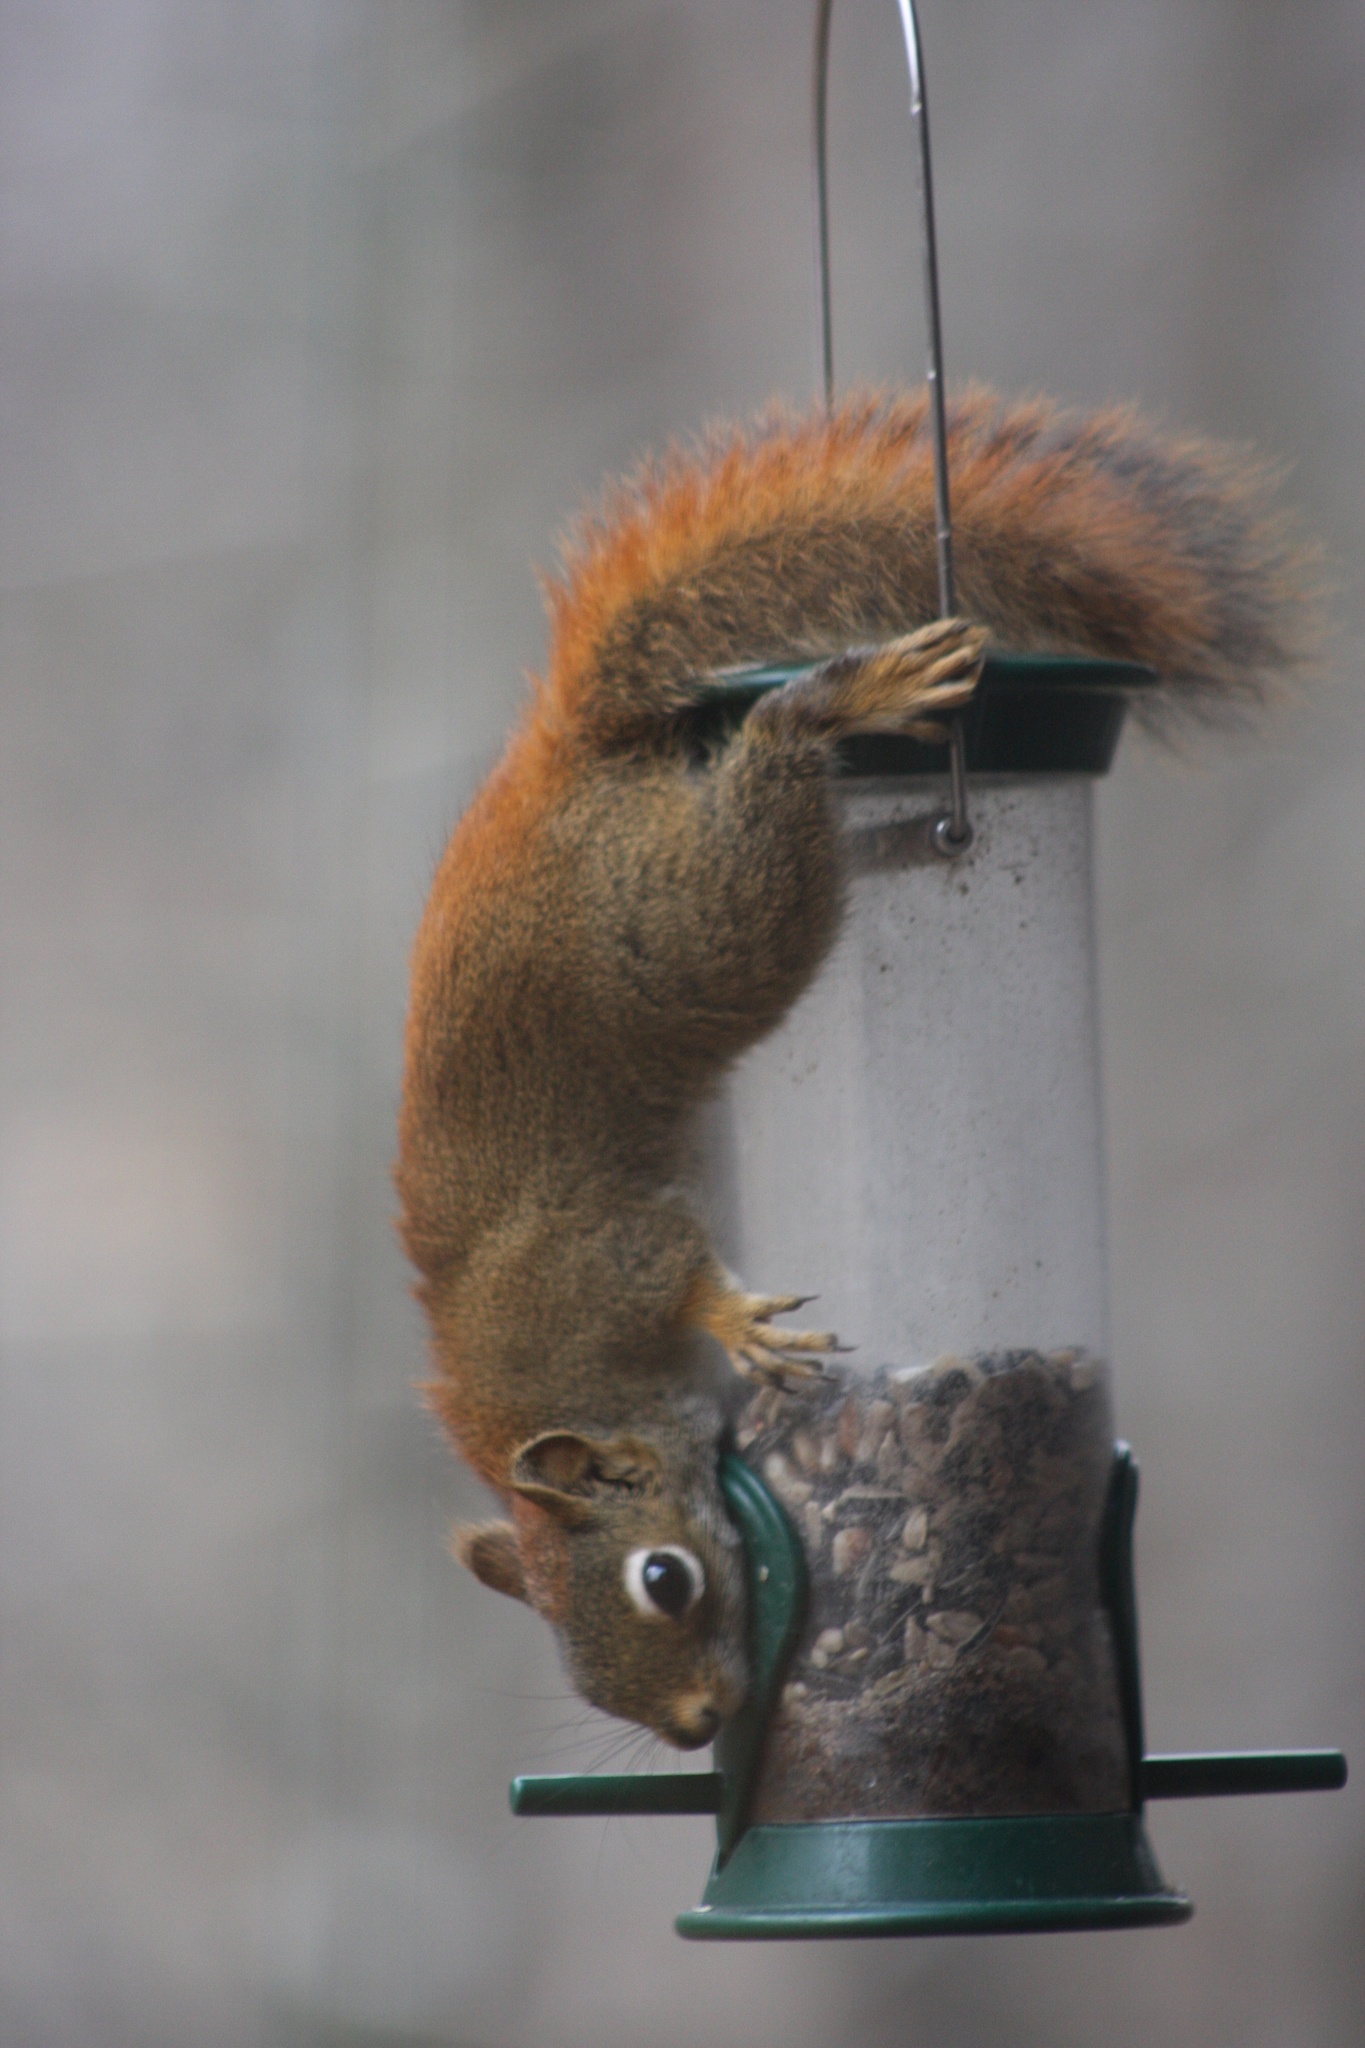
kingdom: Animalia
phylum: Chordata
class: Mammalia
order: Rodentia
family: Sciuridae
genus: Tamiasciurus
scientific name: Tamiasciurus hudsonicus
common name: Red squirrel
